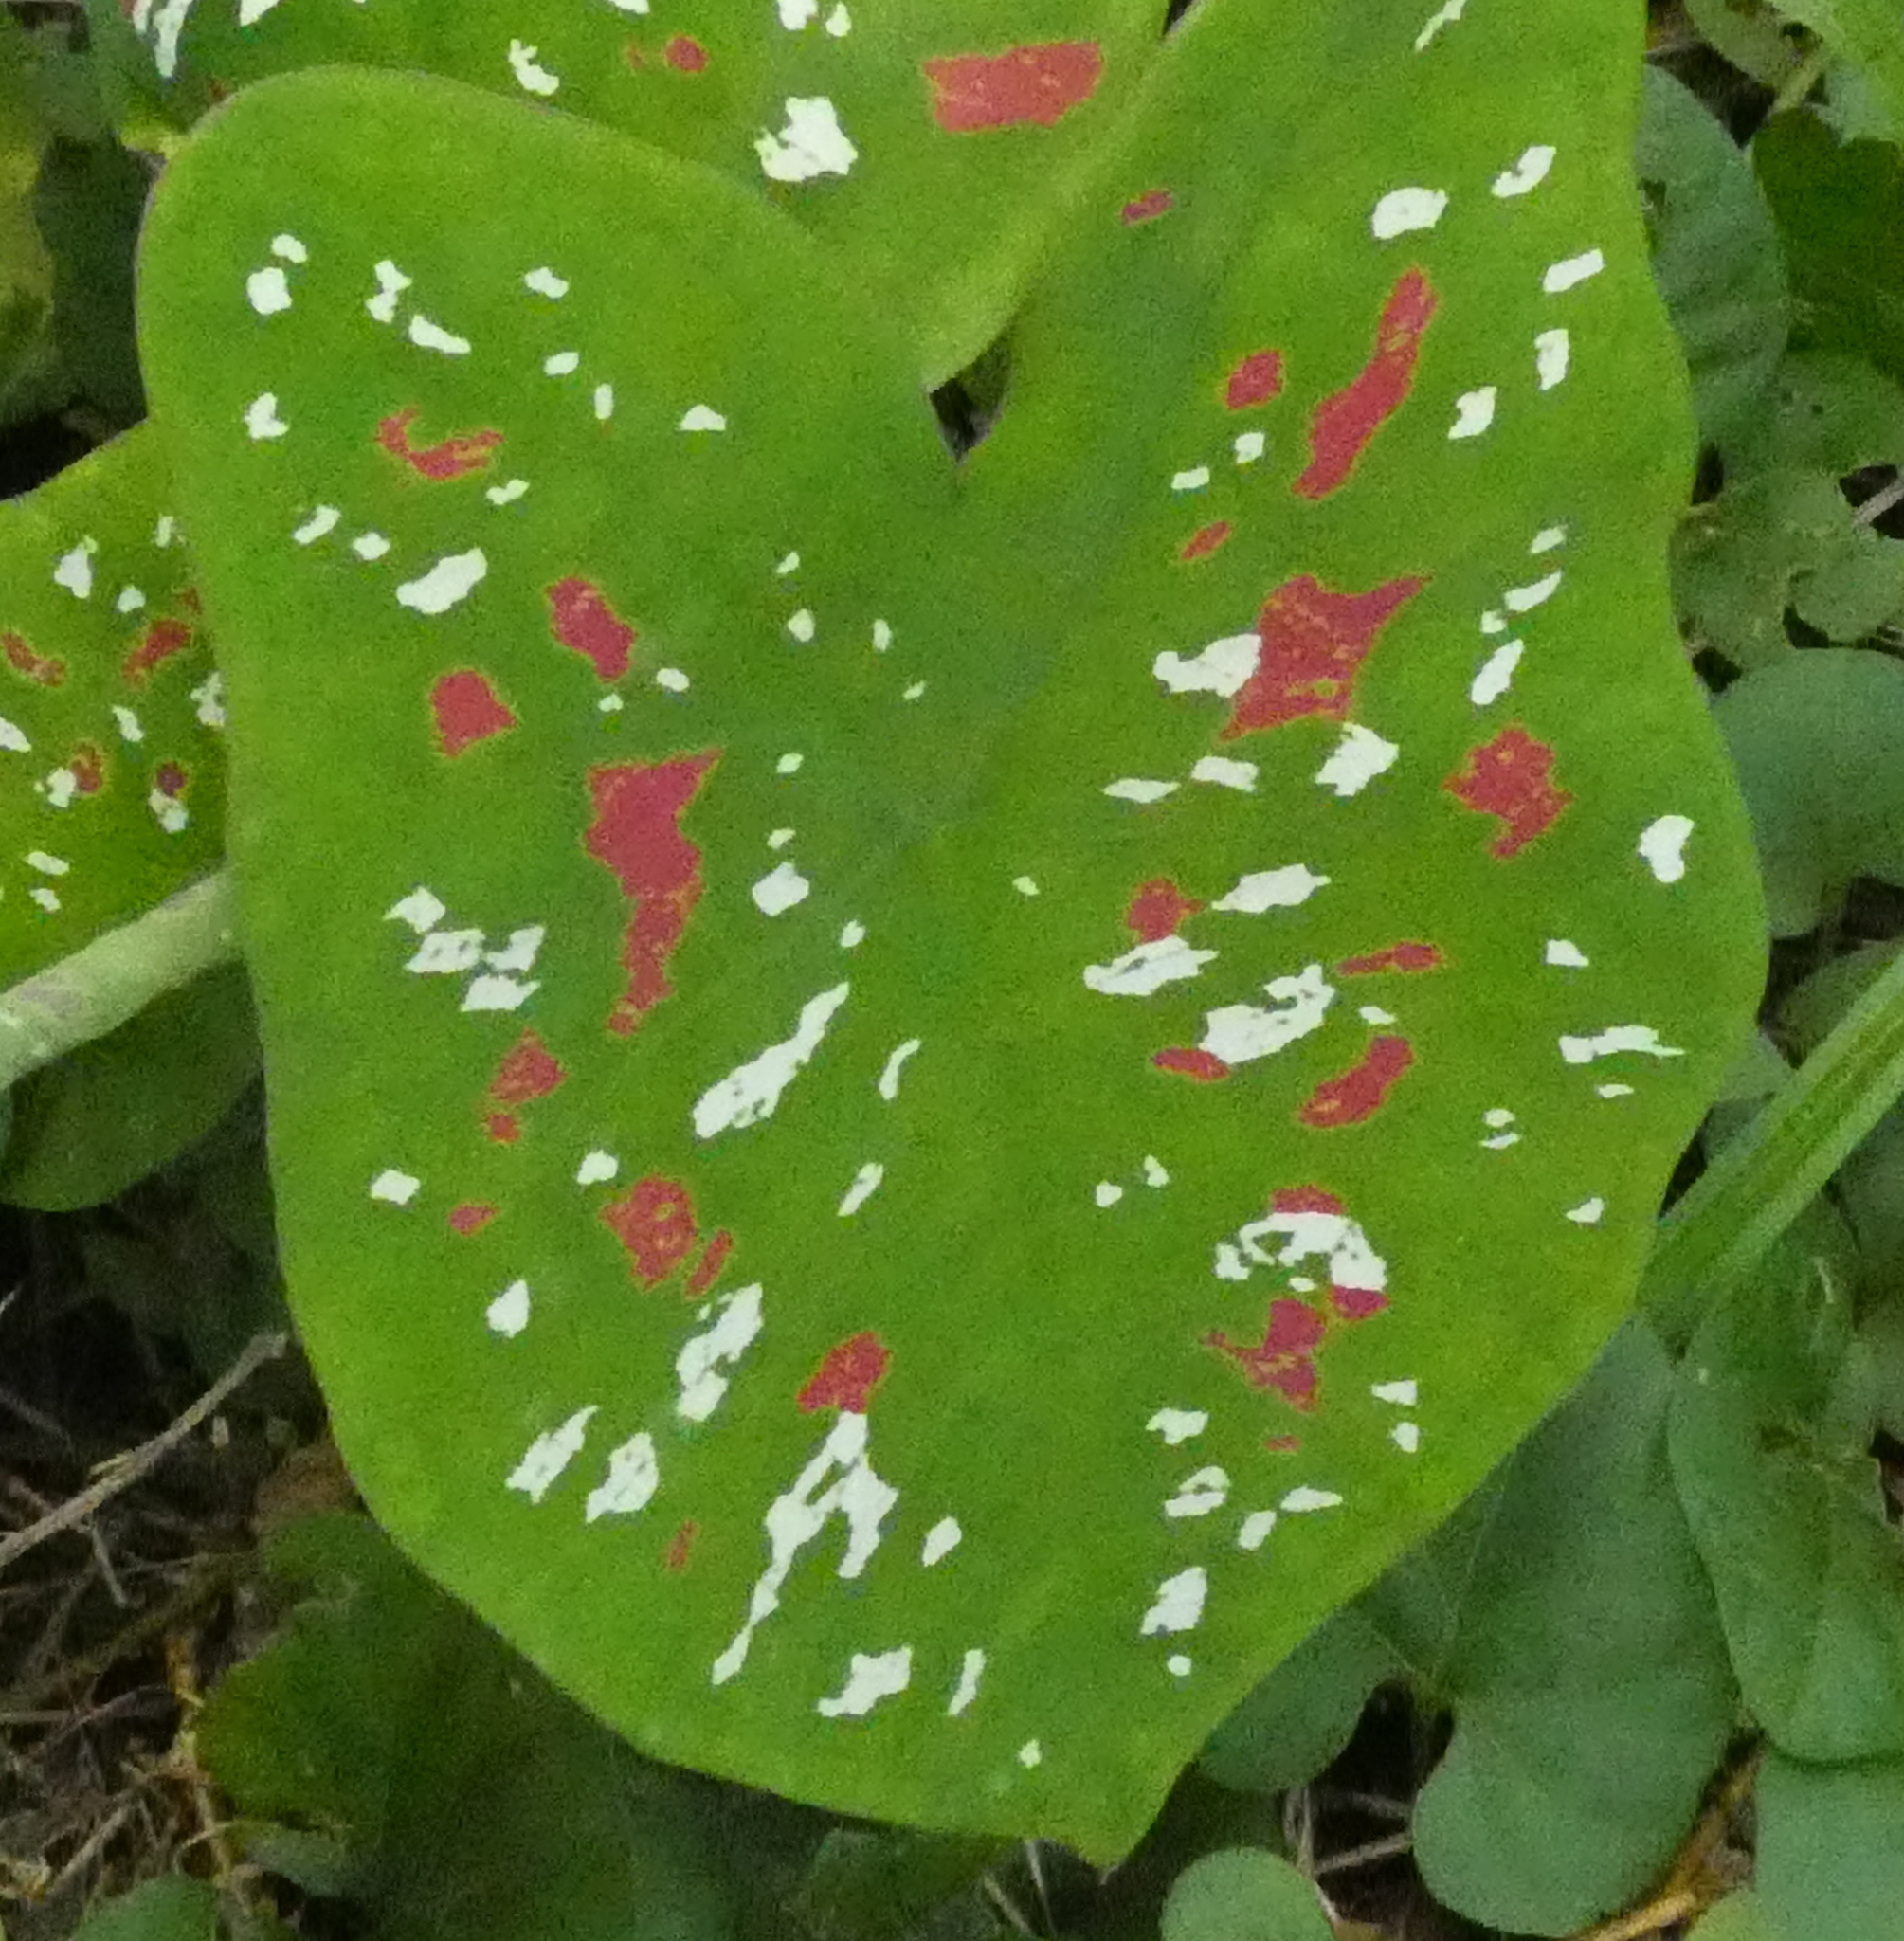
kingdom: Plantae
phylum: Tracheophyta
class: Liliopsida
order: Alismatales
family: Araceae
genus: Caladium
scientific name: Caladium bicolor
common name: Artist's pallet
